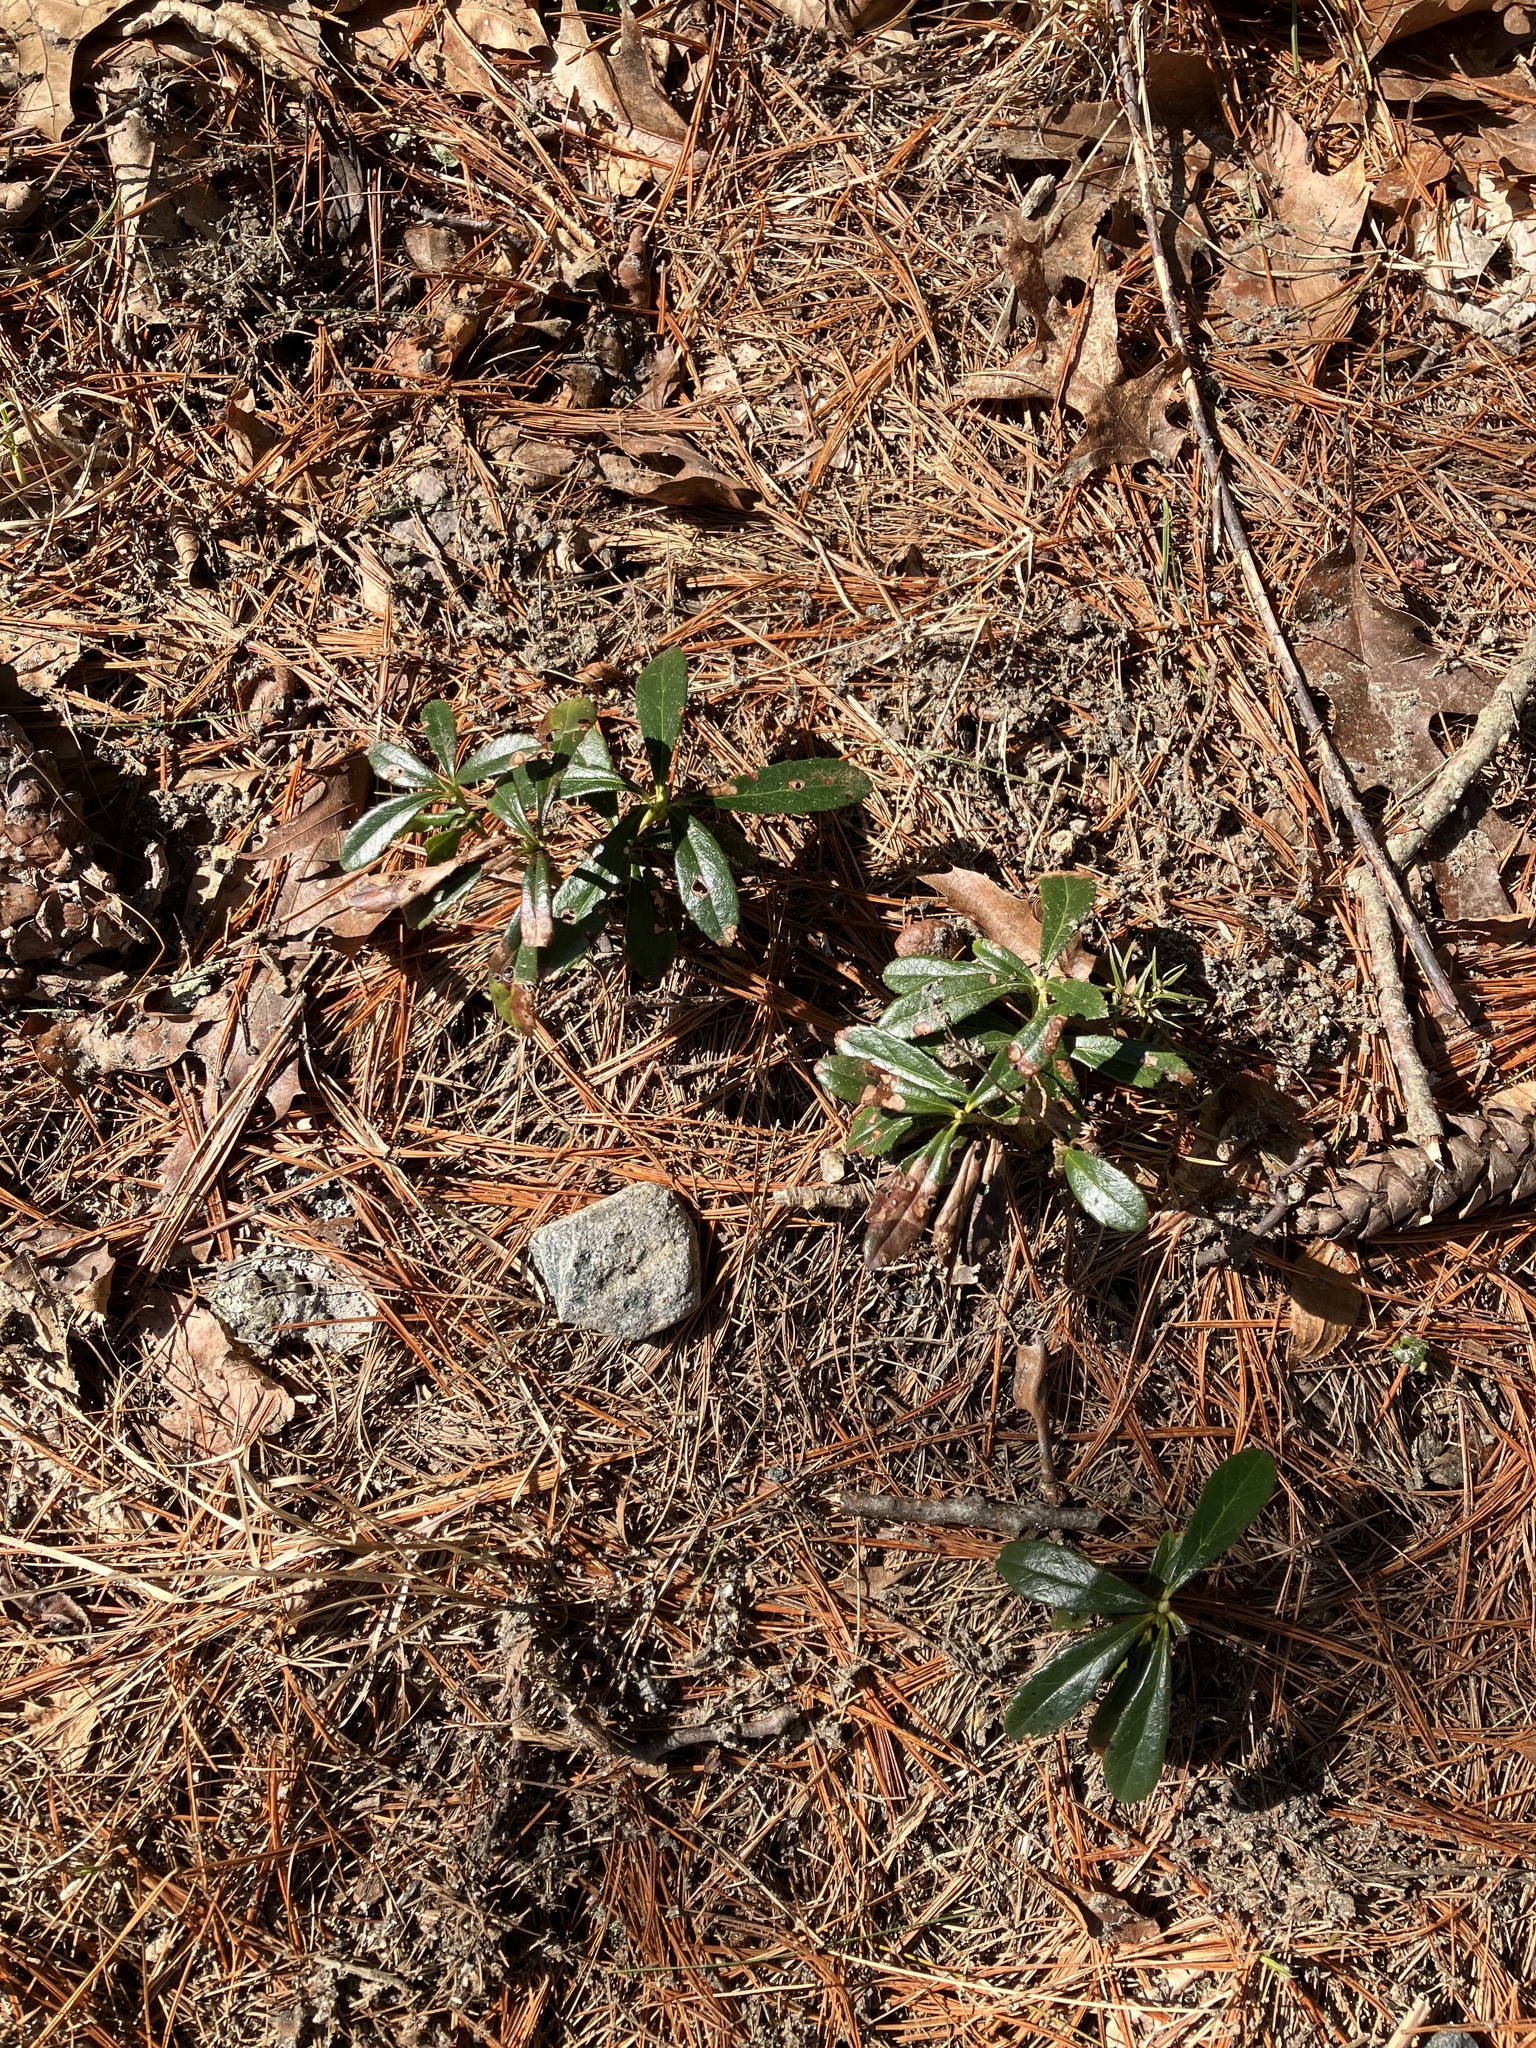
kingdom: Plantae
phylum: Tracheophyta
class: Magnoliopsida
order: Ericales
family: Ericaceae
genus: Chimaphila
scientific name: Chimaphila umbellata
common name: Pipsissewa
